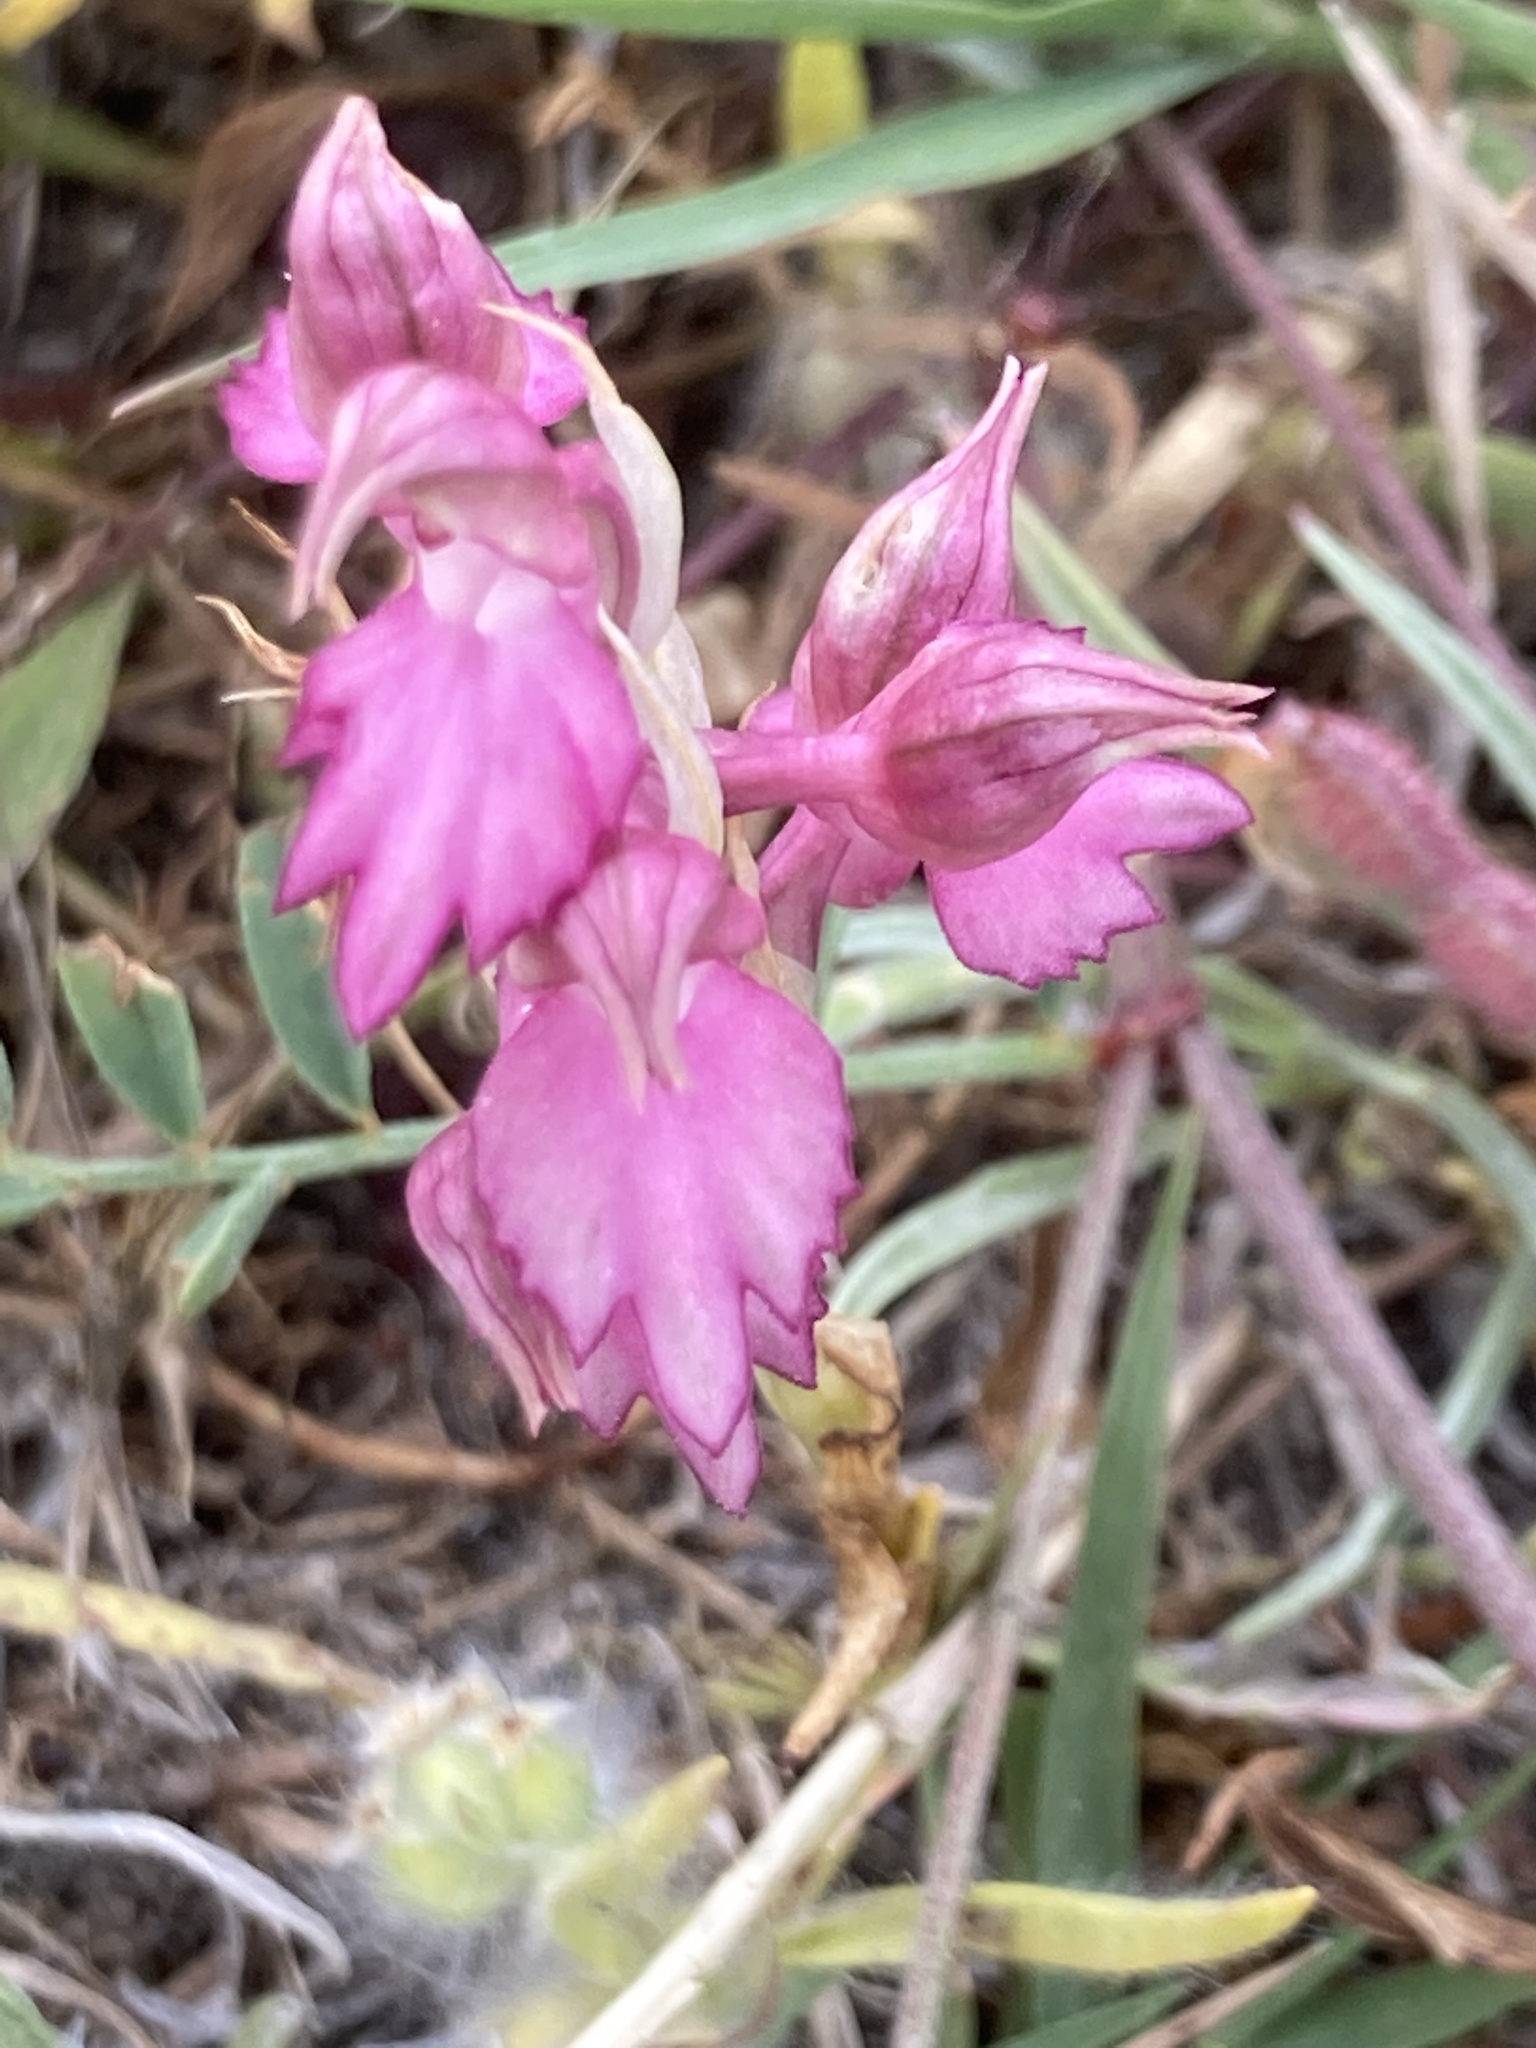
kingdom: Plantae
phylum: Tracheophyta
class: Liliopsida
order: Asparagales
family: Orchidaceae
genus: Anacamptis
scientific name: Anacamptis sancta
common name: Holy orchid
